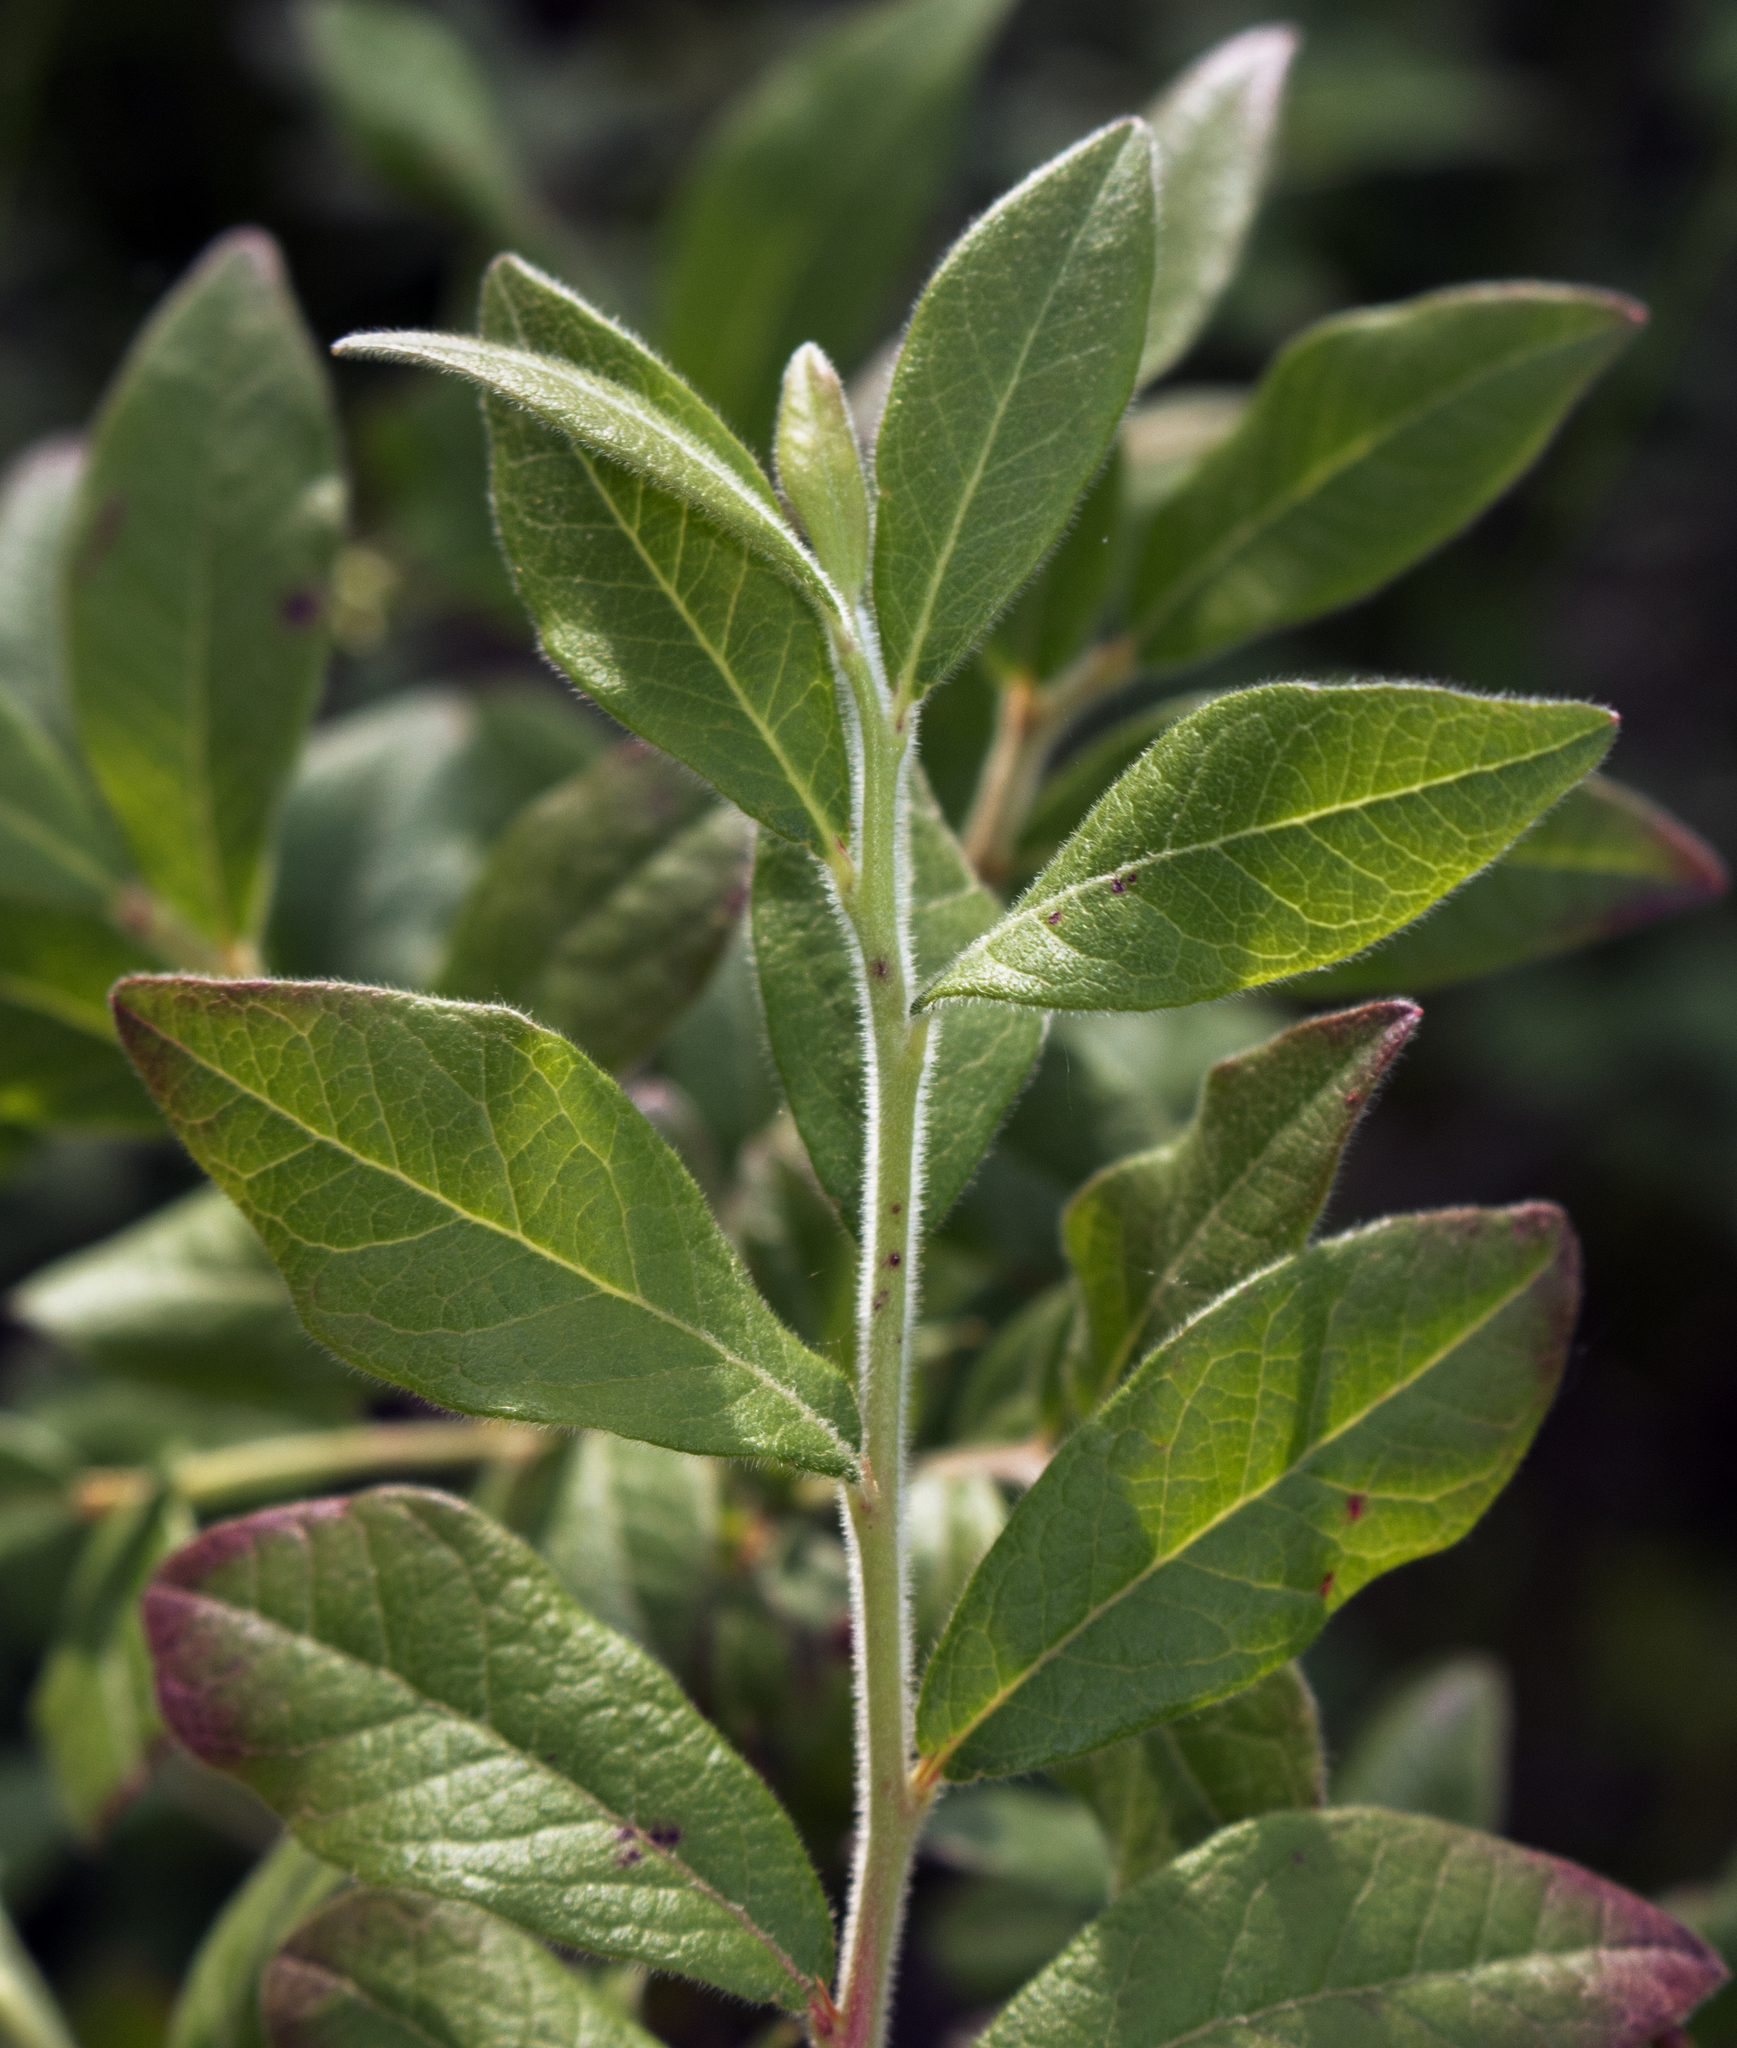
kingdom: Plantae
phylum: Tracheophyta
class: Magnoliopsida
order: Ericales
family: Ericaceae
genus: Vaccinium
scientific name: Vaccinium myrtilloides
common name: Canada blueberry
